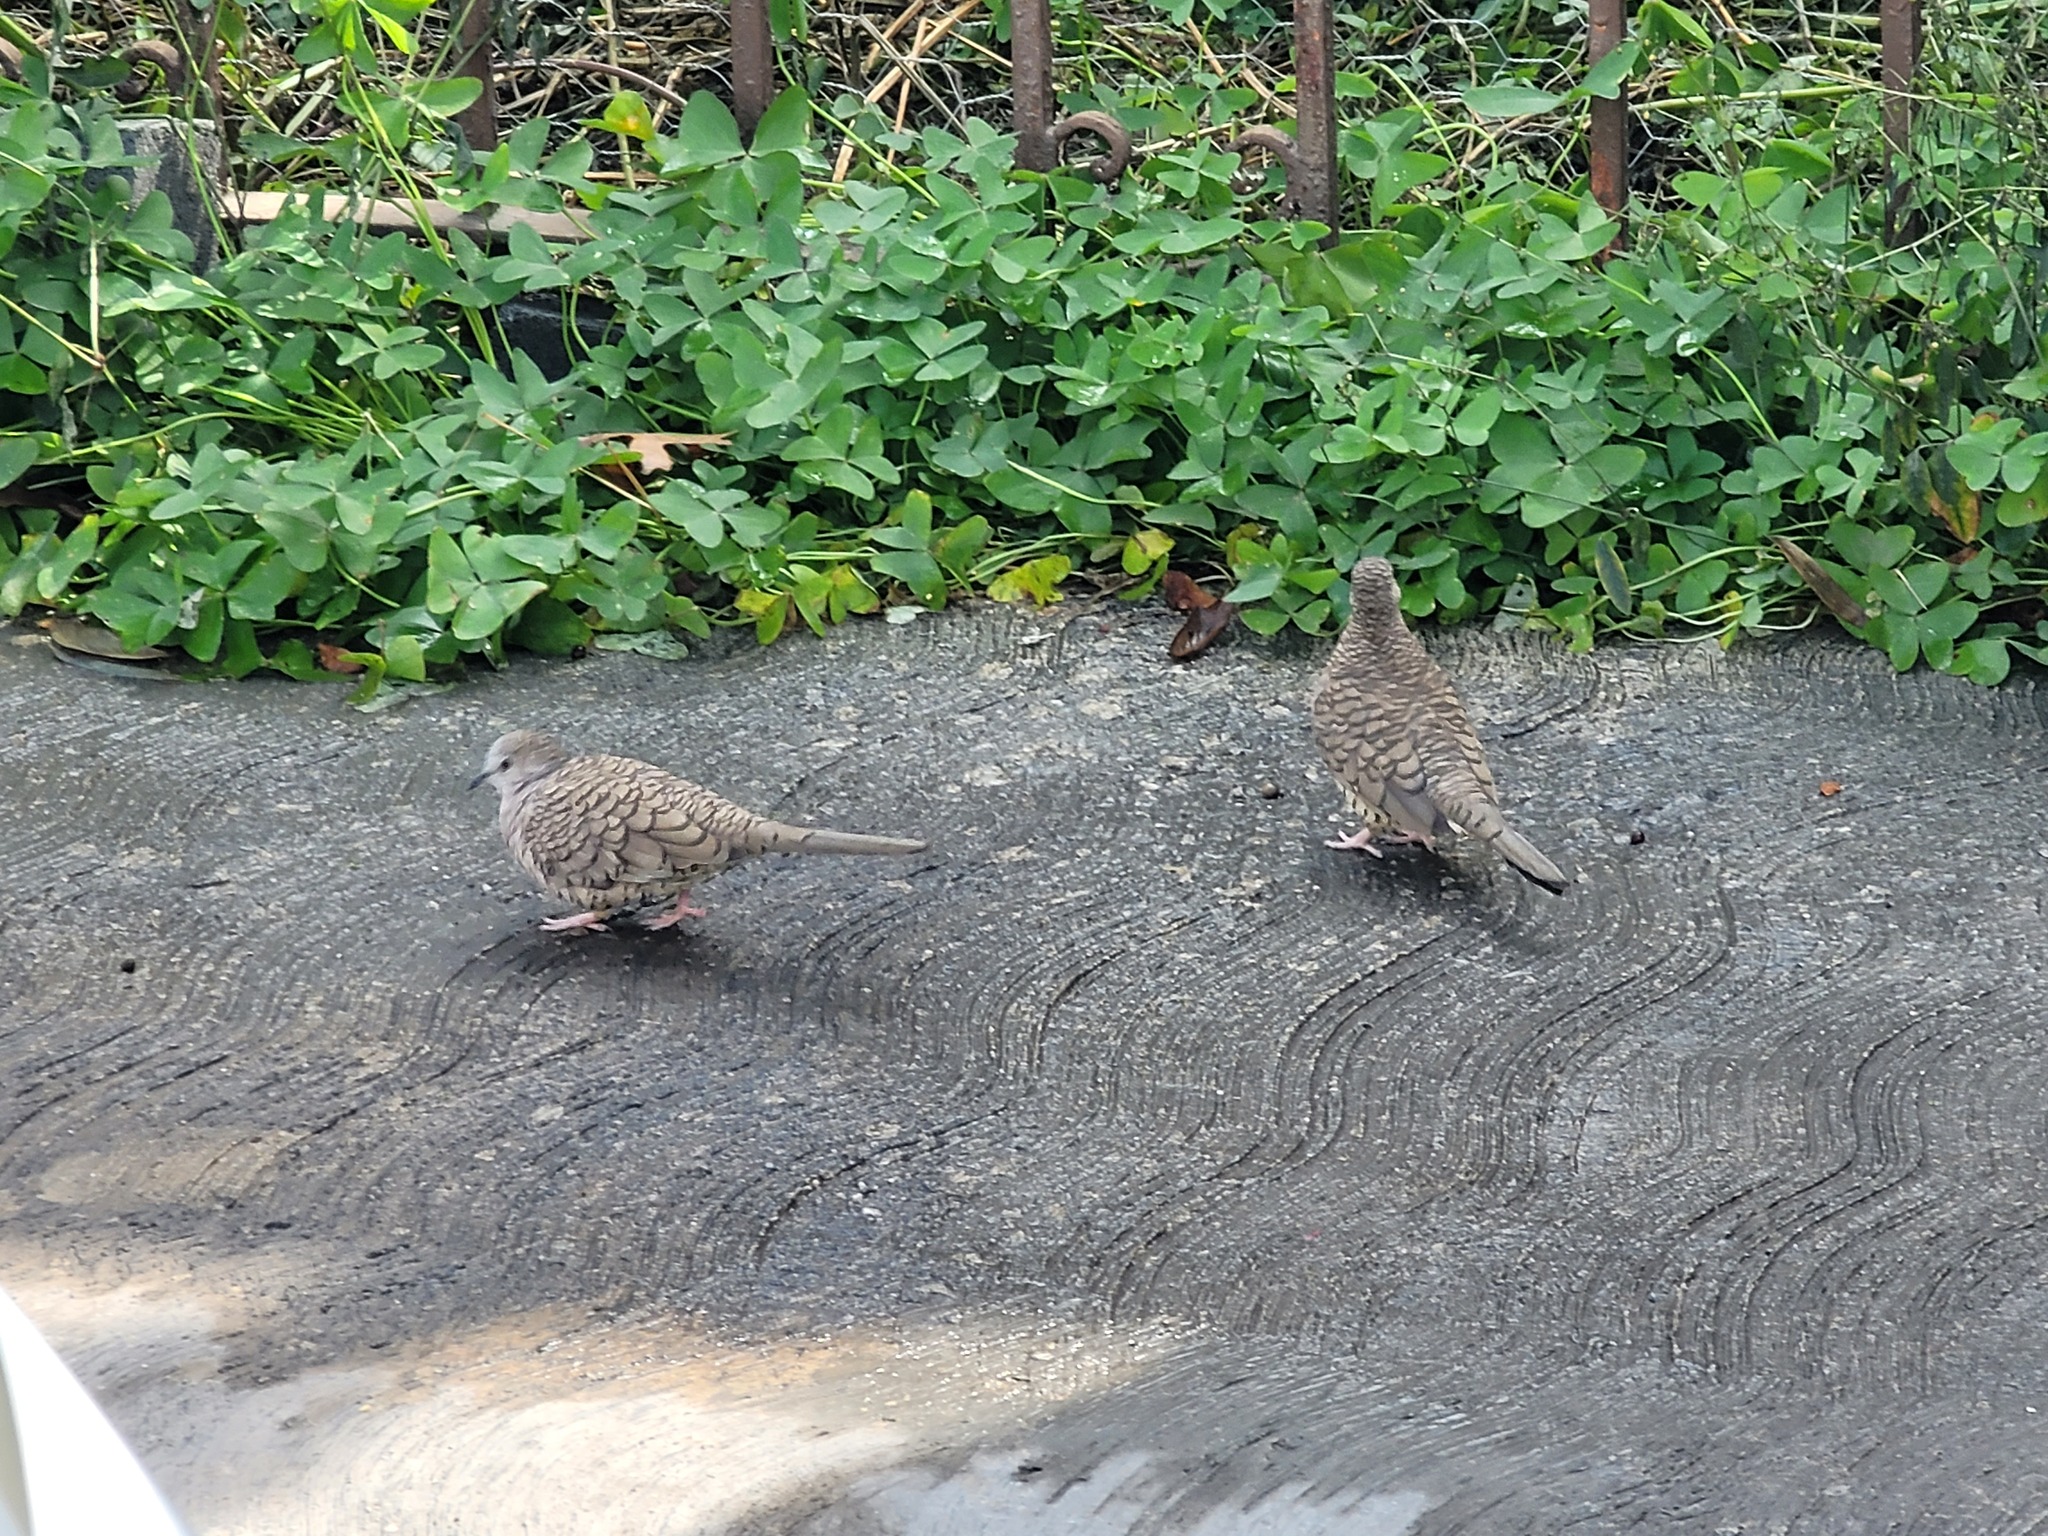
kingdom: Animalia
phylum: Chordata
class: Aves
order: Columbiformes
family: Columbidae
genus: Columbina
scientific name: Columbina inca
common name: Inca dove
